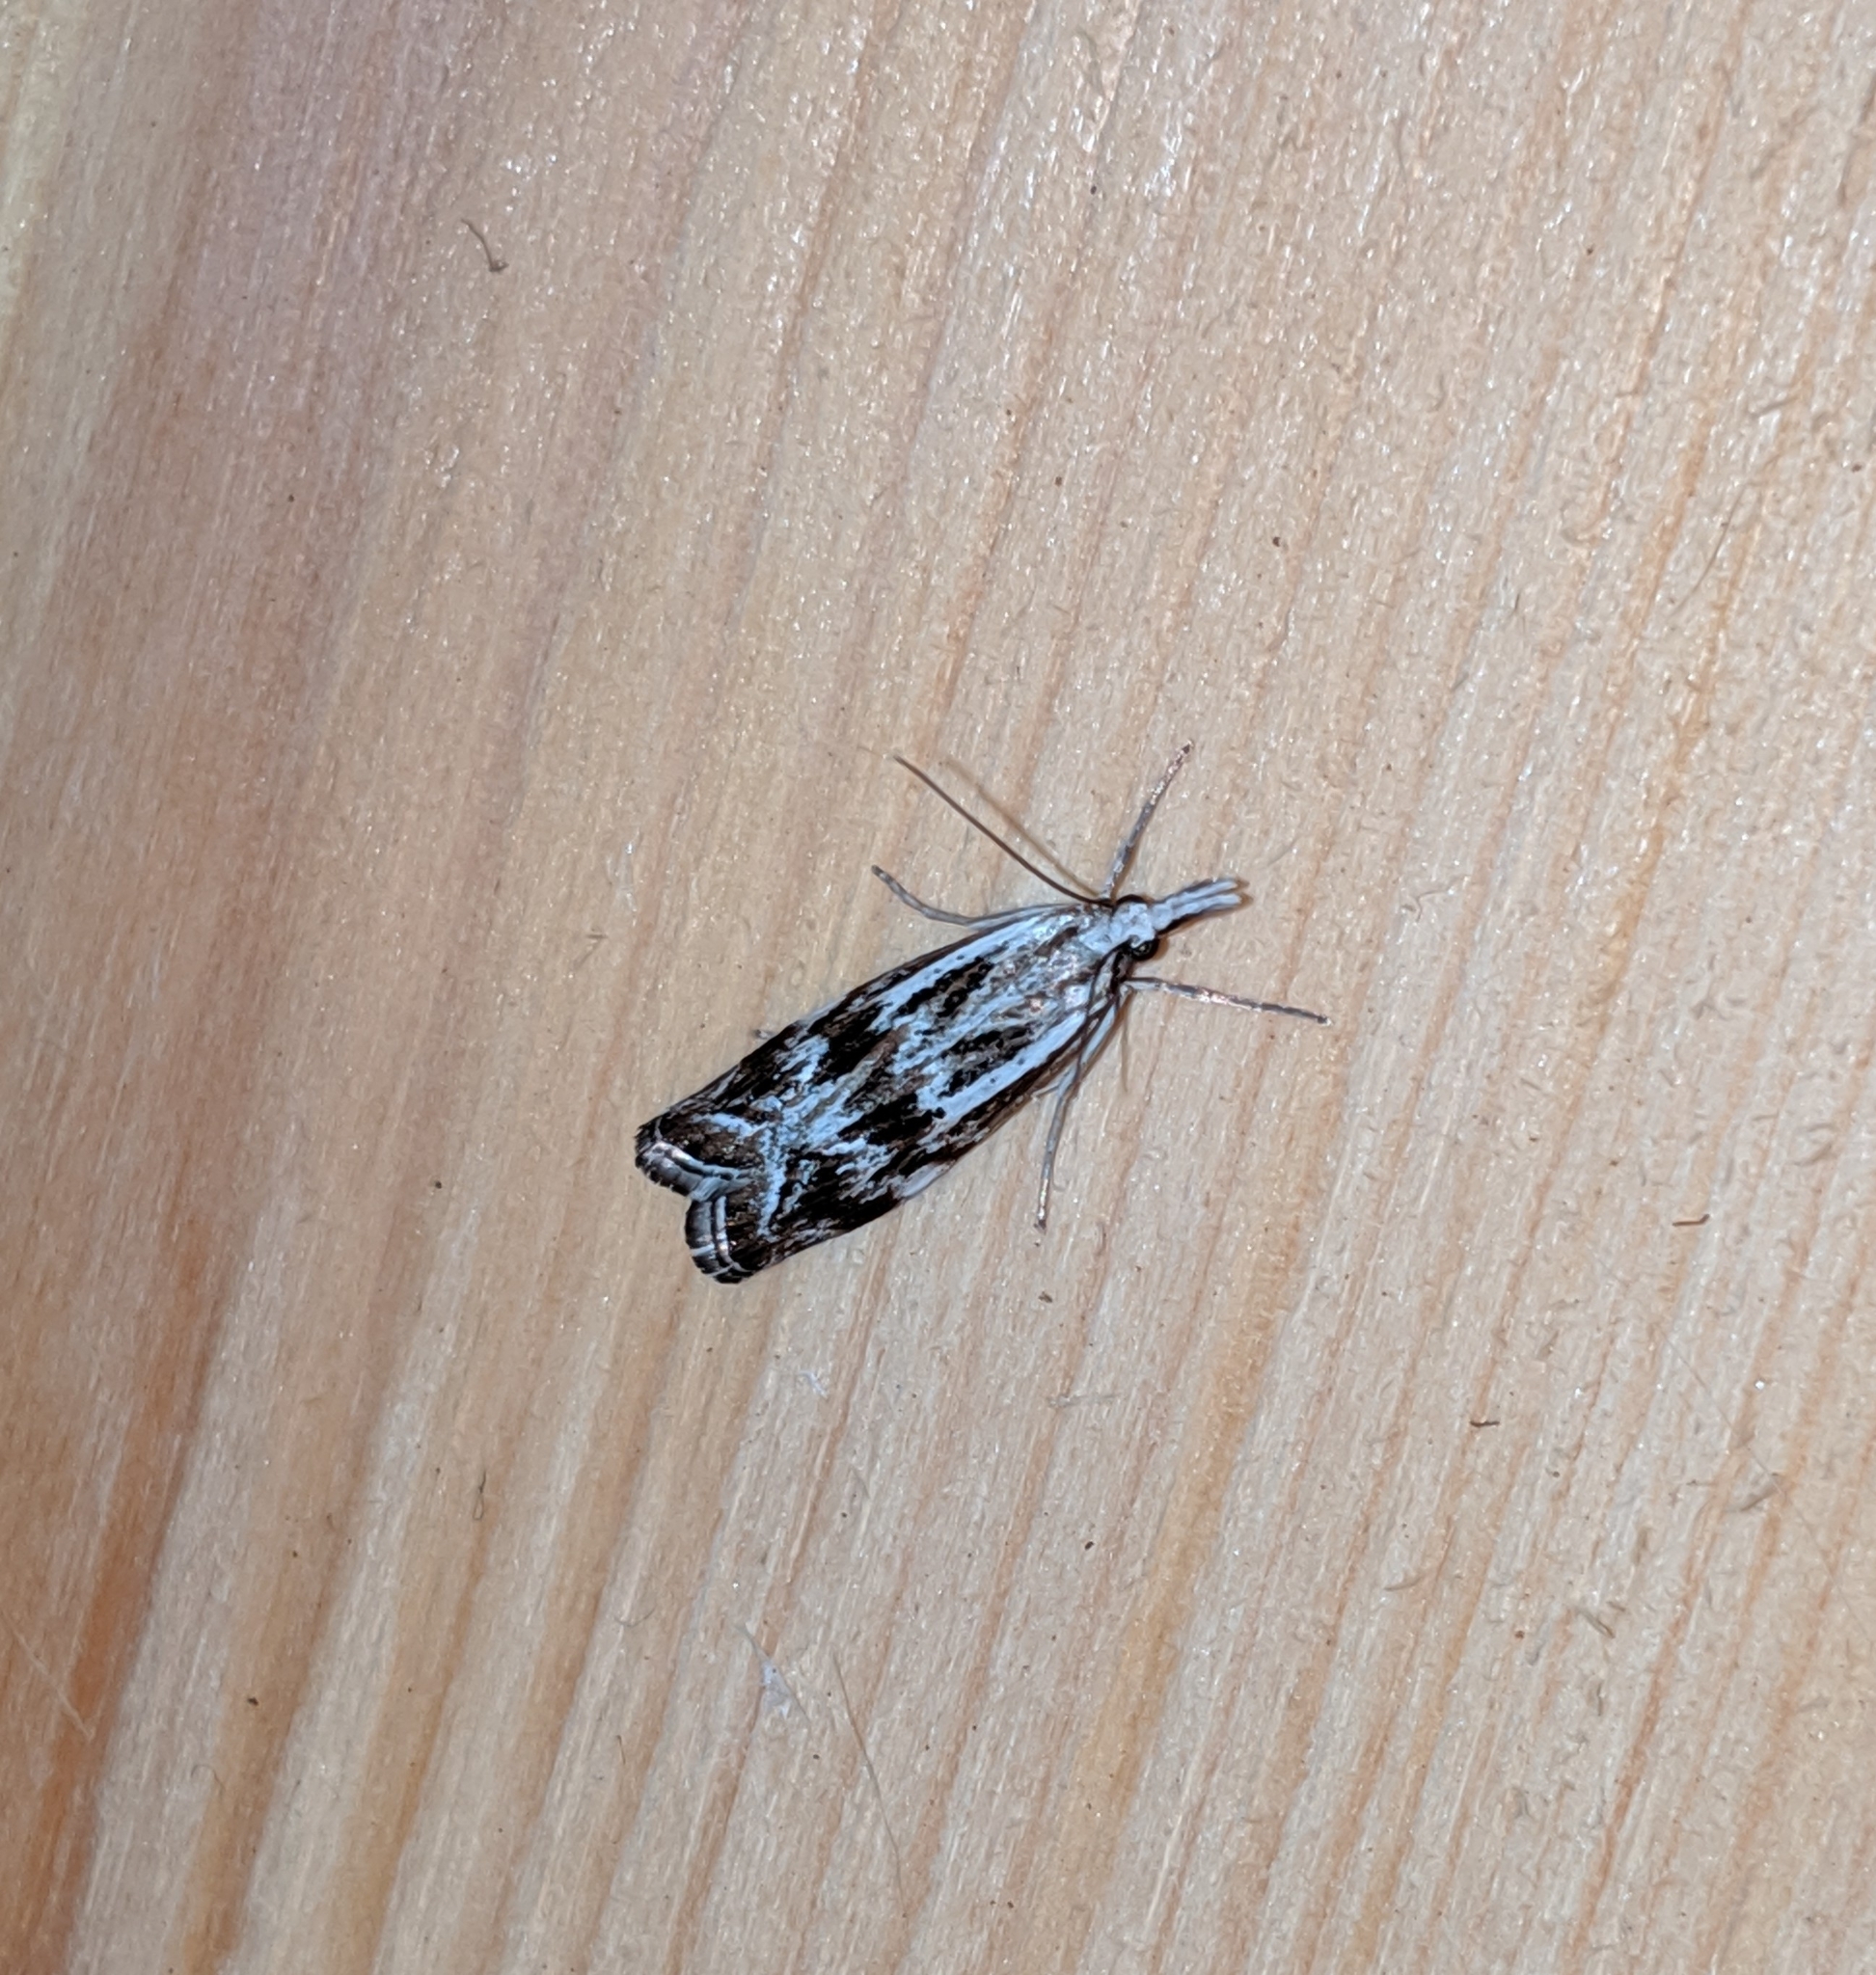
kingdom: Animalia
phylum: Arthropoda
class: Insecta
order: Lepidoptera
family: Crambidae
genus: Catoptria
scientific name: Catoptria oregonicus
